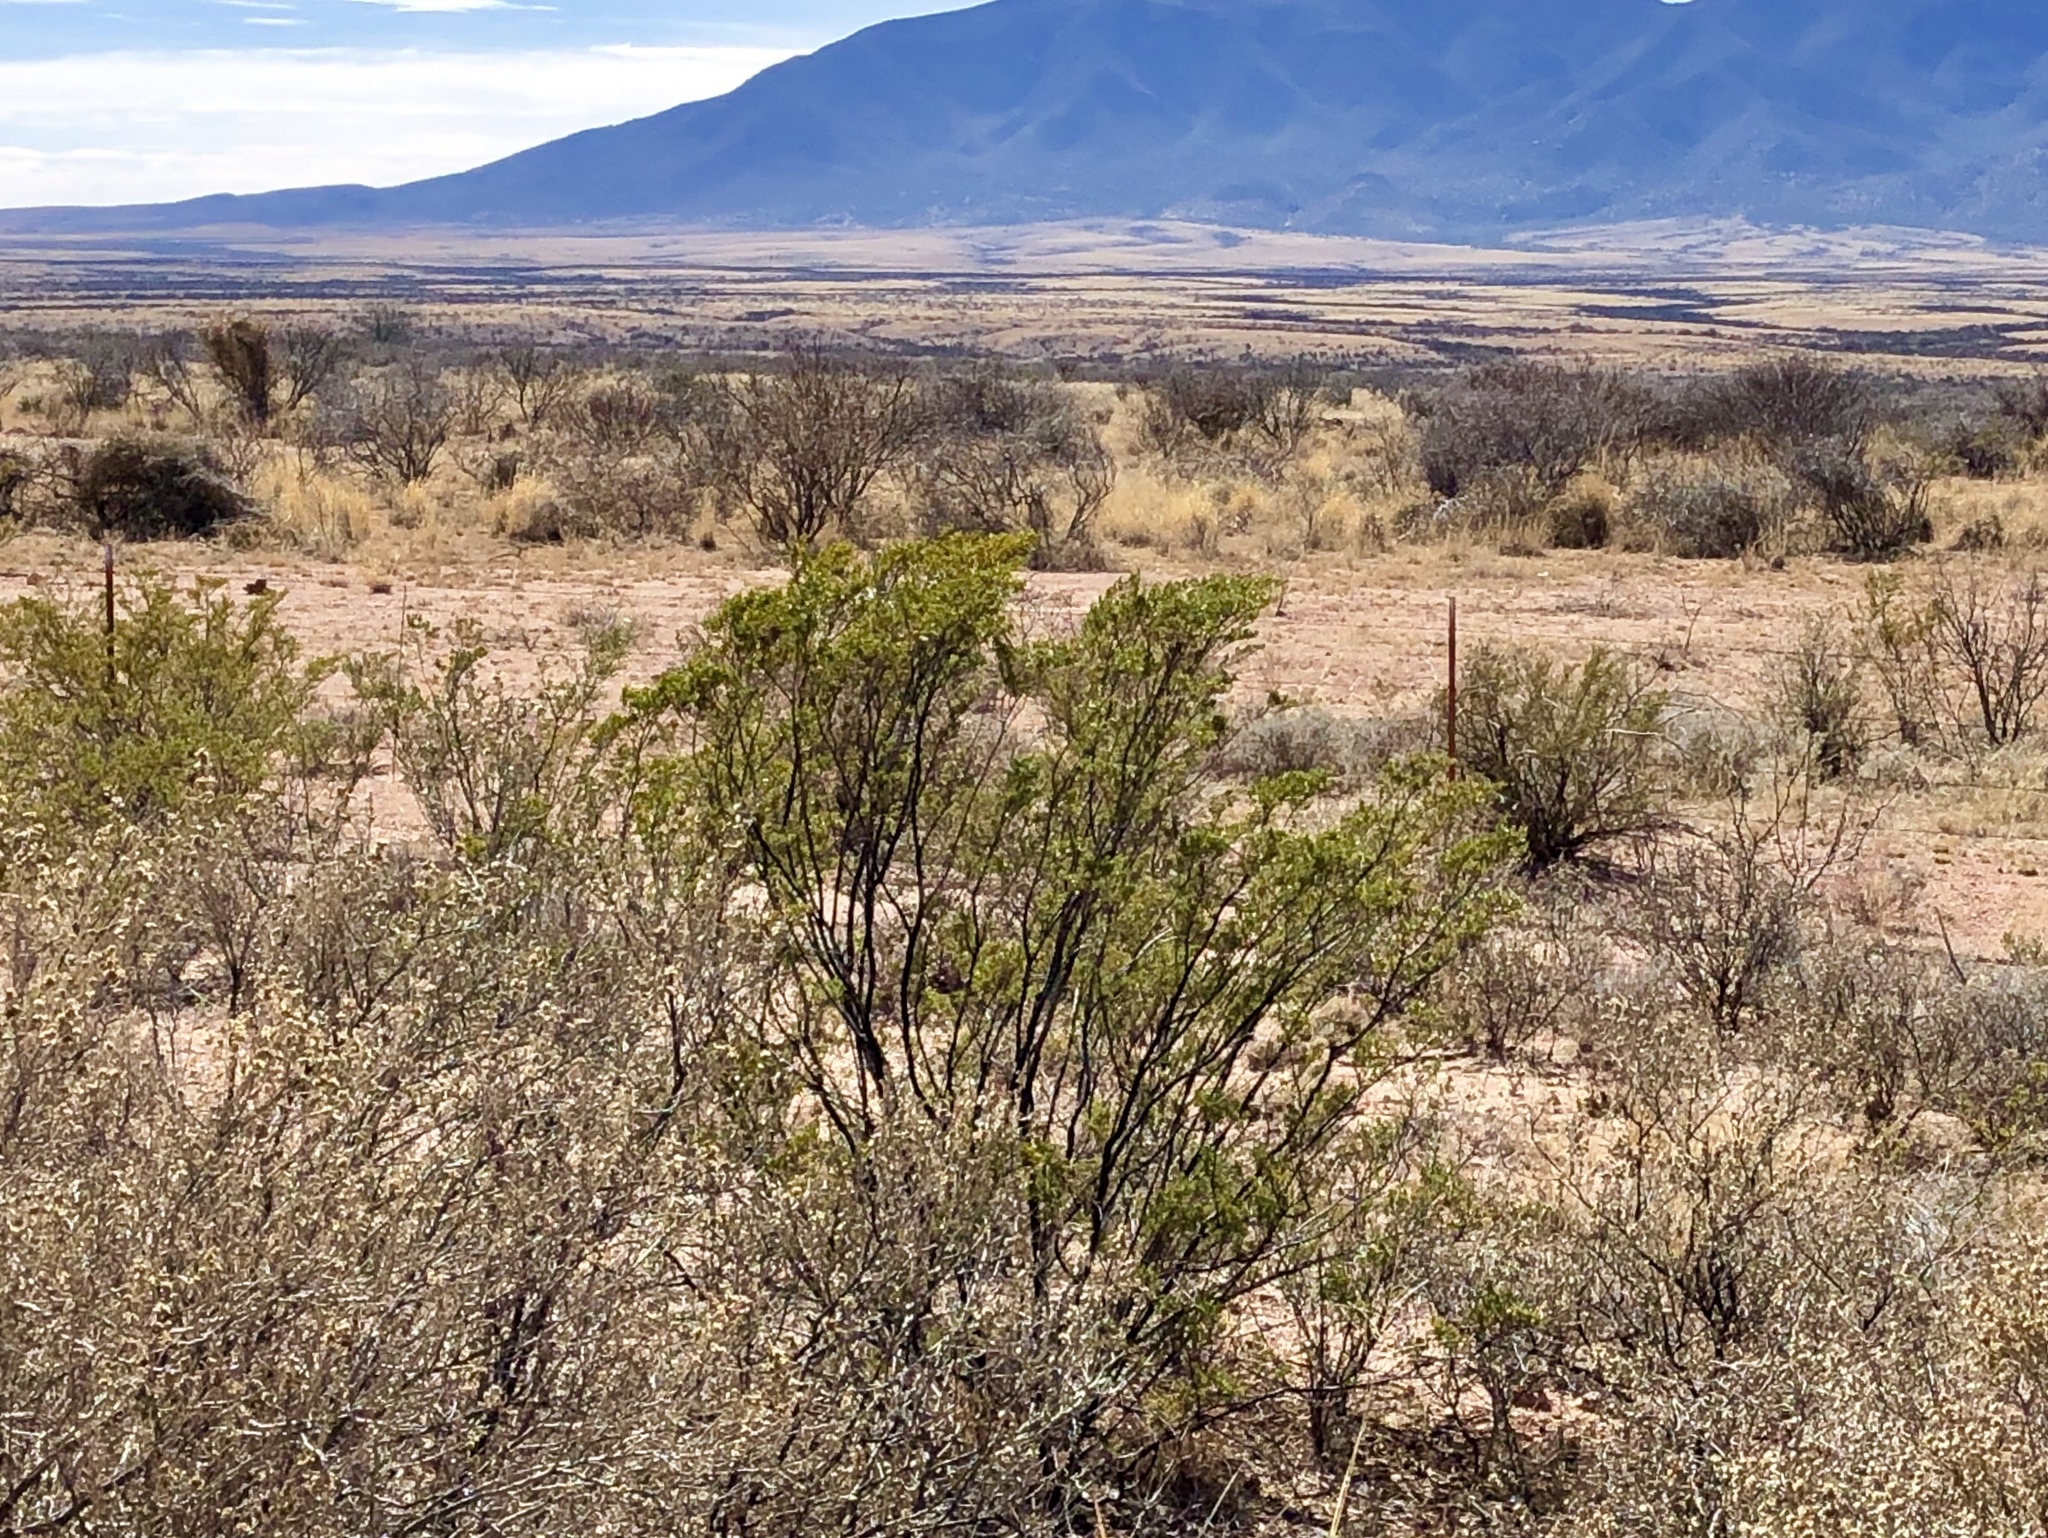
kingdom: Plantae
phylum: Tracheophyta
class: Magnoliopsida
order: Zygophyllales
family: Zygophyllaceae
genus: Larrea
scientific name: Larrea tridentata
